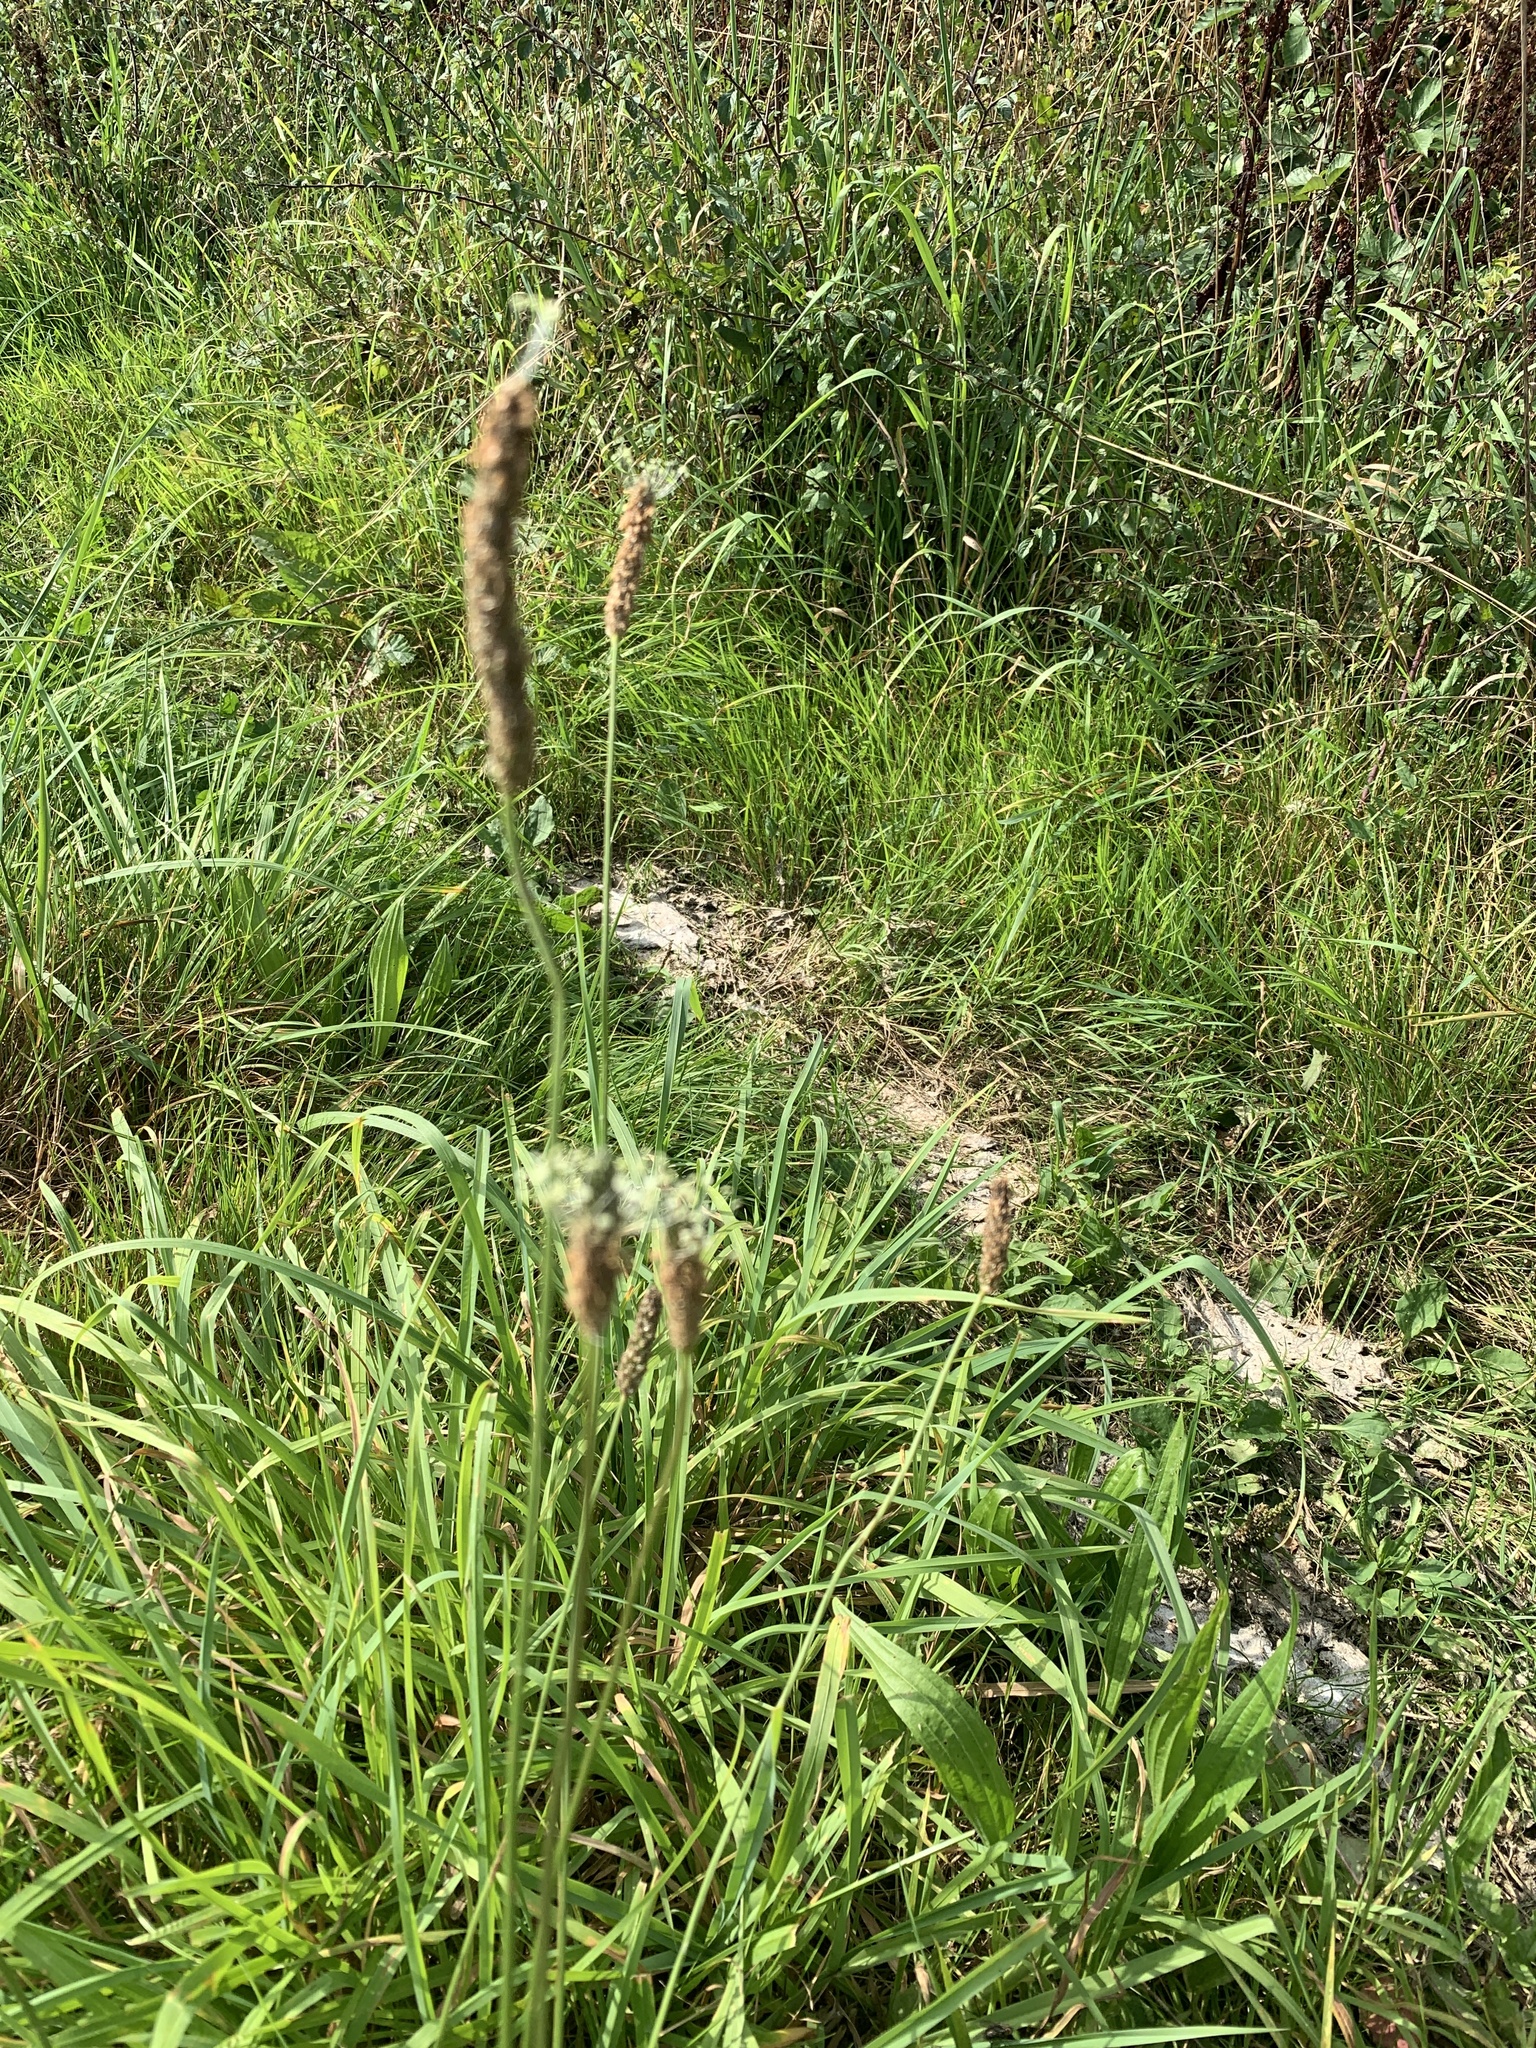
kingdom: Plantae
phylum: Tracheophyta
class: Magnoliopsida
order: Lamiales
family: Plantaginaceae
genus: Plantago
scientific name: Plantago lanceolata
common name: Ribwort plantain
